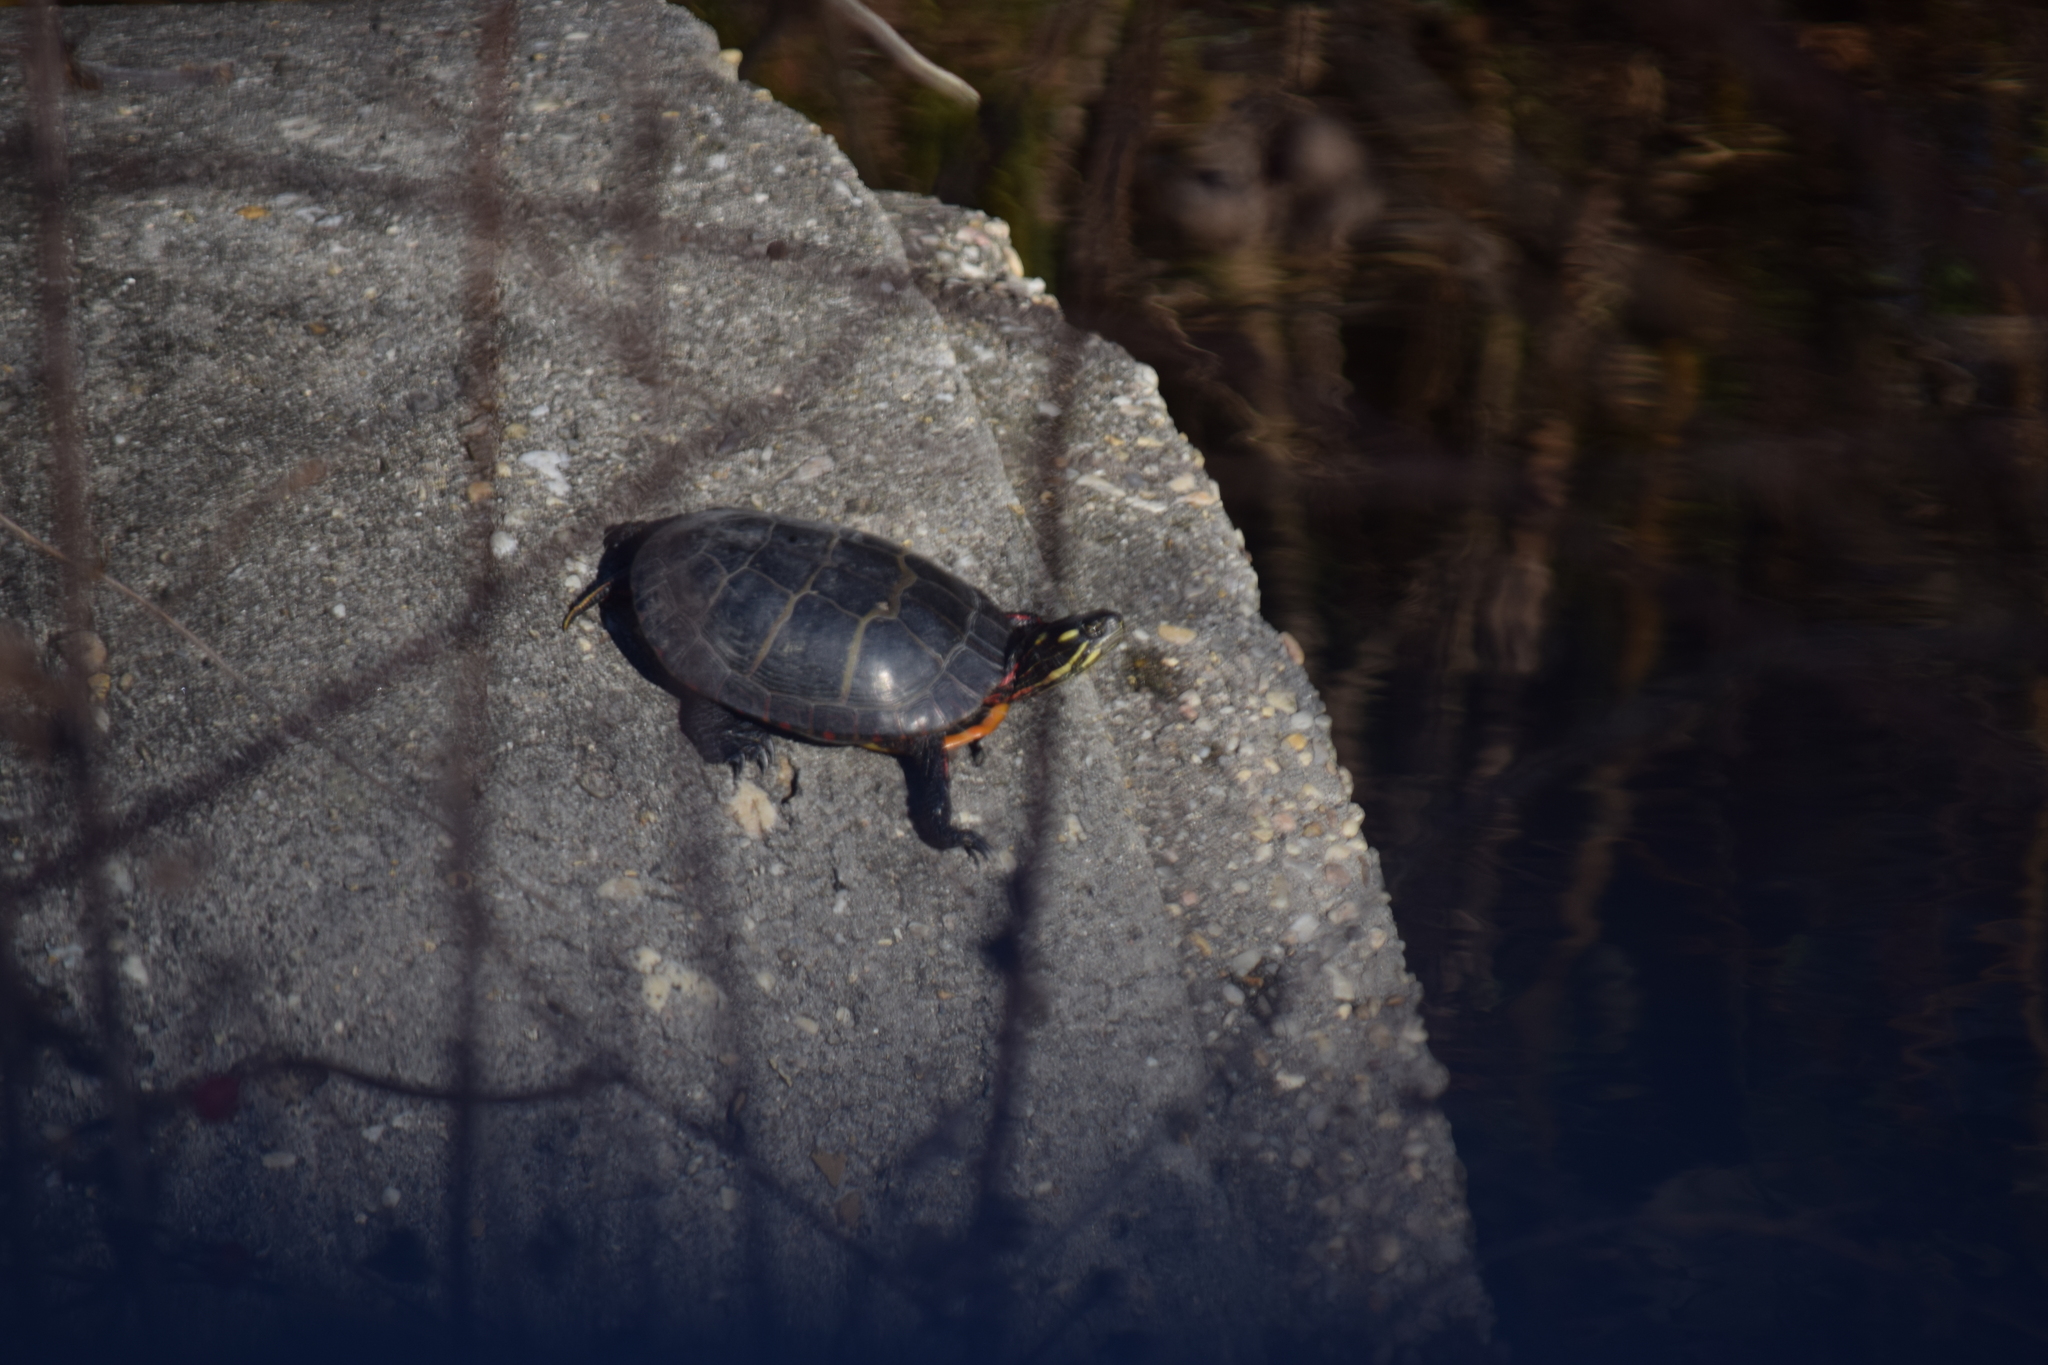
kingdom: Animalia
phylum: Chordata
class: Testudines
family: Emydidae
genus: Chrysemys
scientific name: Chrysemys picta
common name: Painted turtle
